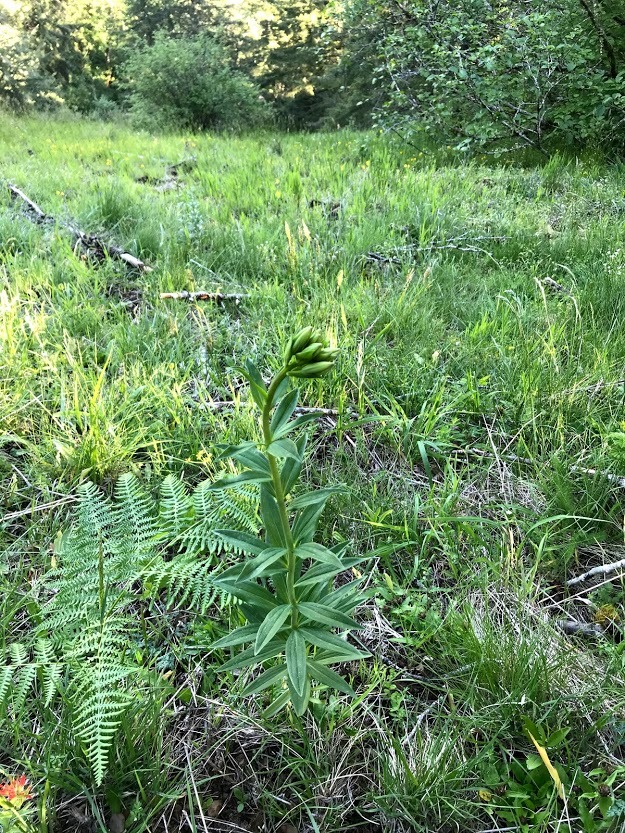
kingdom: Plantae
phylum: Tracheophyta
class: Liliopsida
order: Liliales
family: Liliaceae
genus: Lilium
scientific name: Lilium columbianum
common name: Columbia lily
